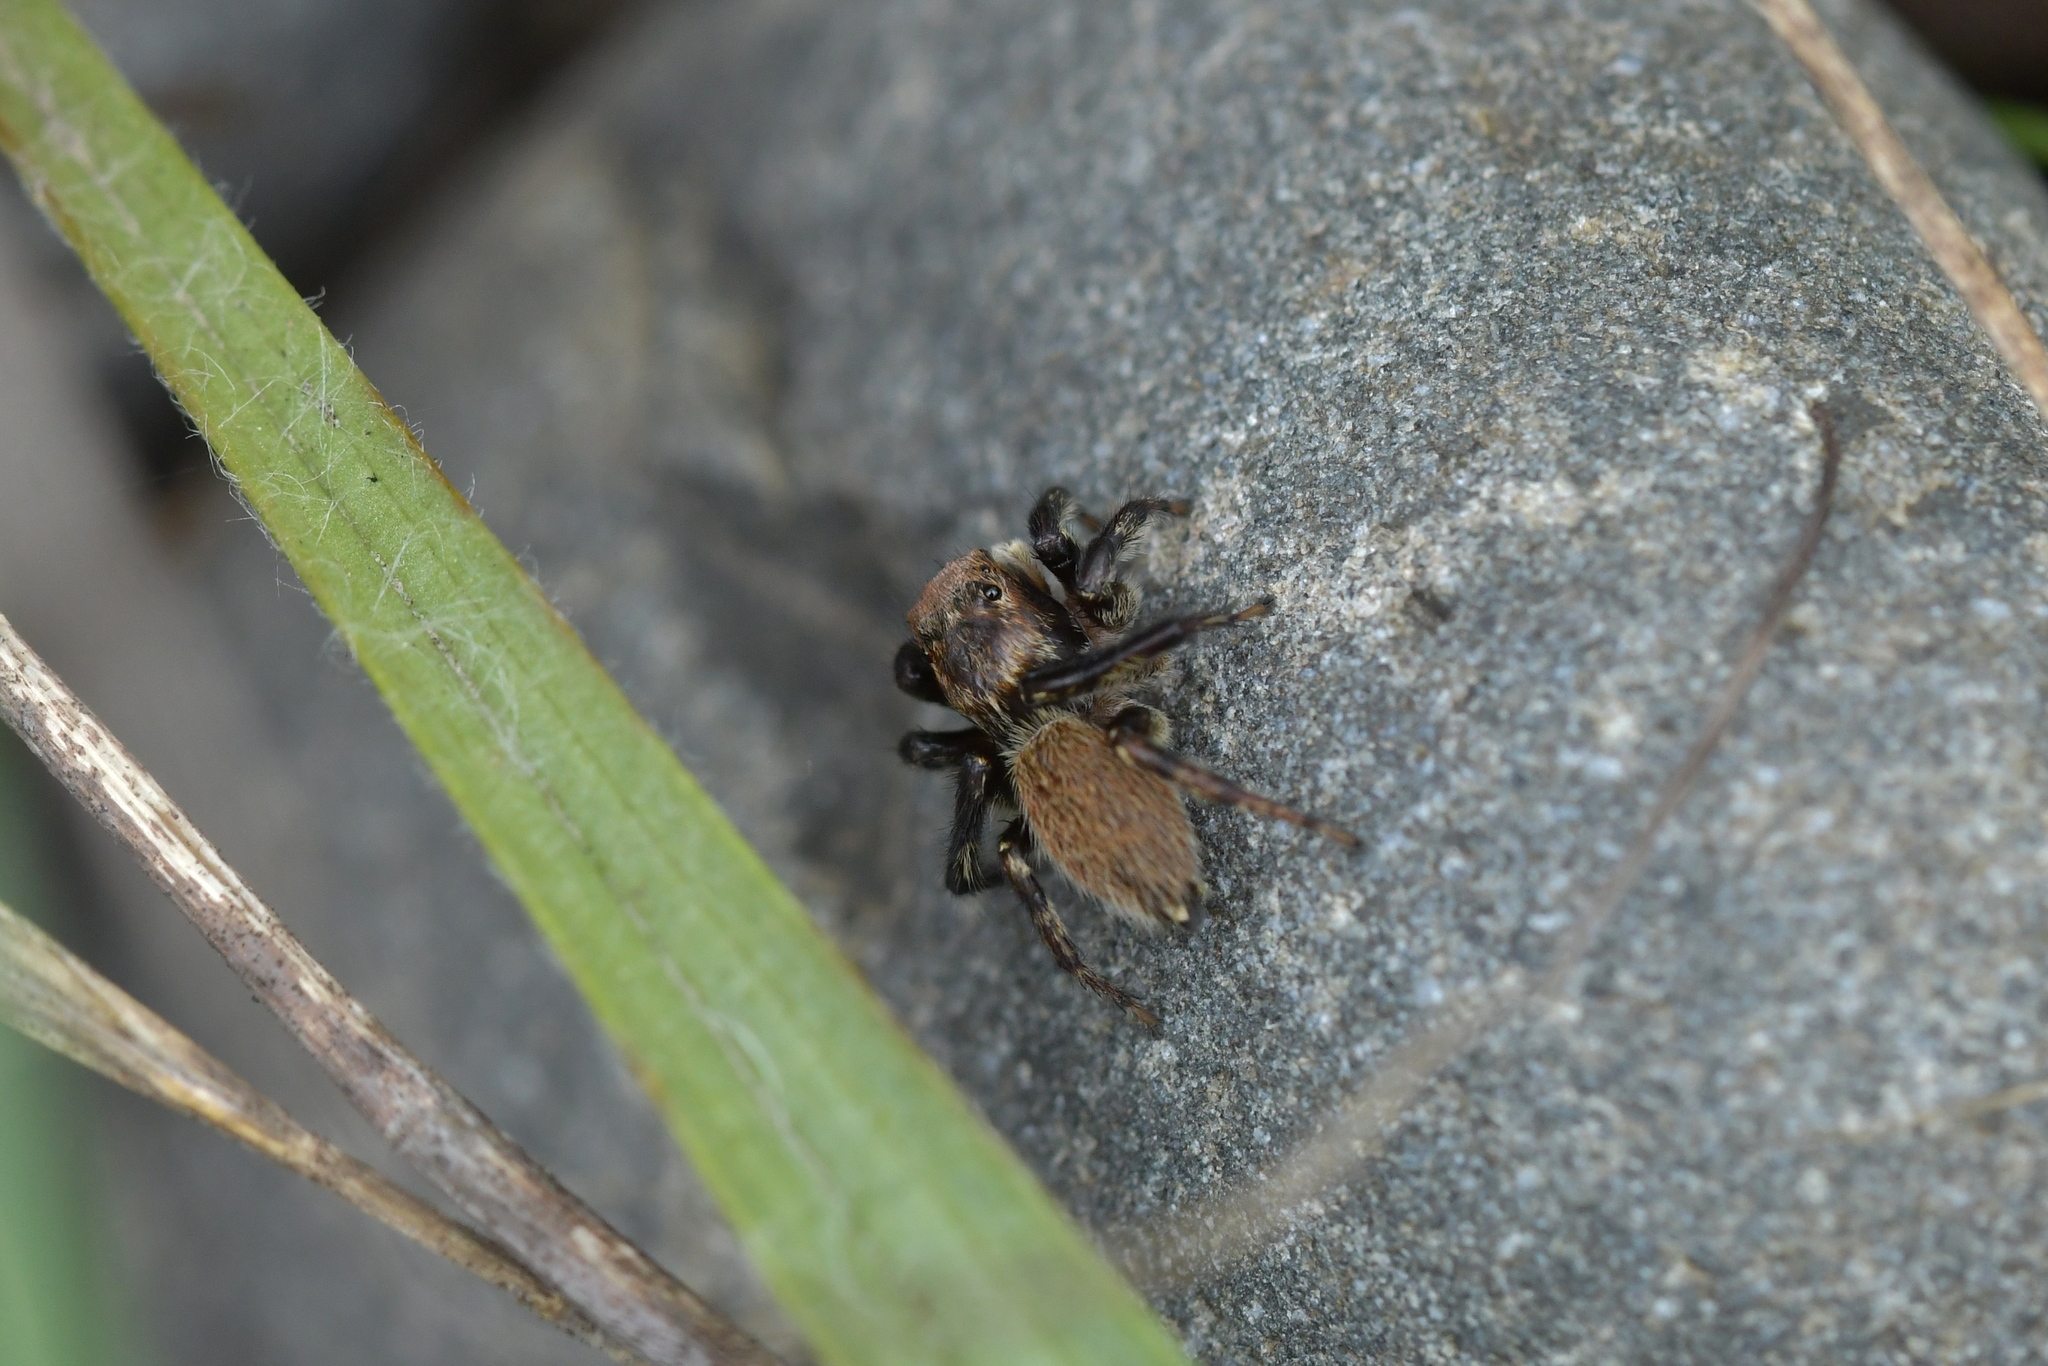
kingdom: Animalia
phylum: Arthropoda
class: Arachnida
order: Araneae
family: Salticidae
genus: Maratus
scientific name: Maratus griseus
